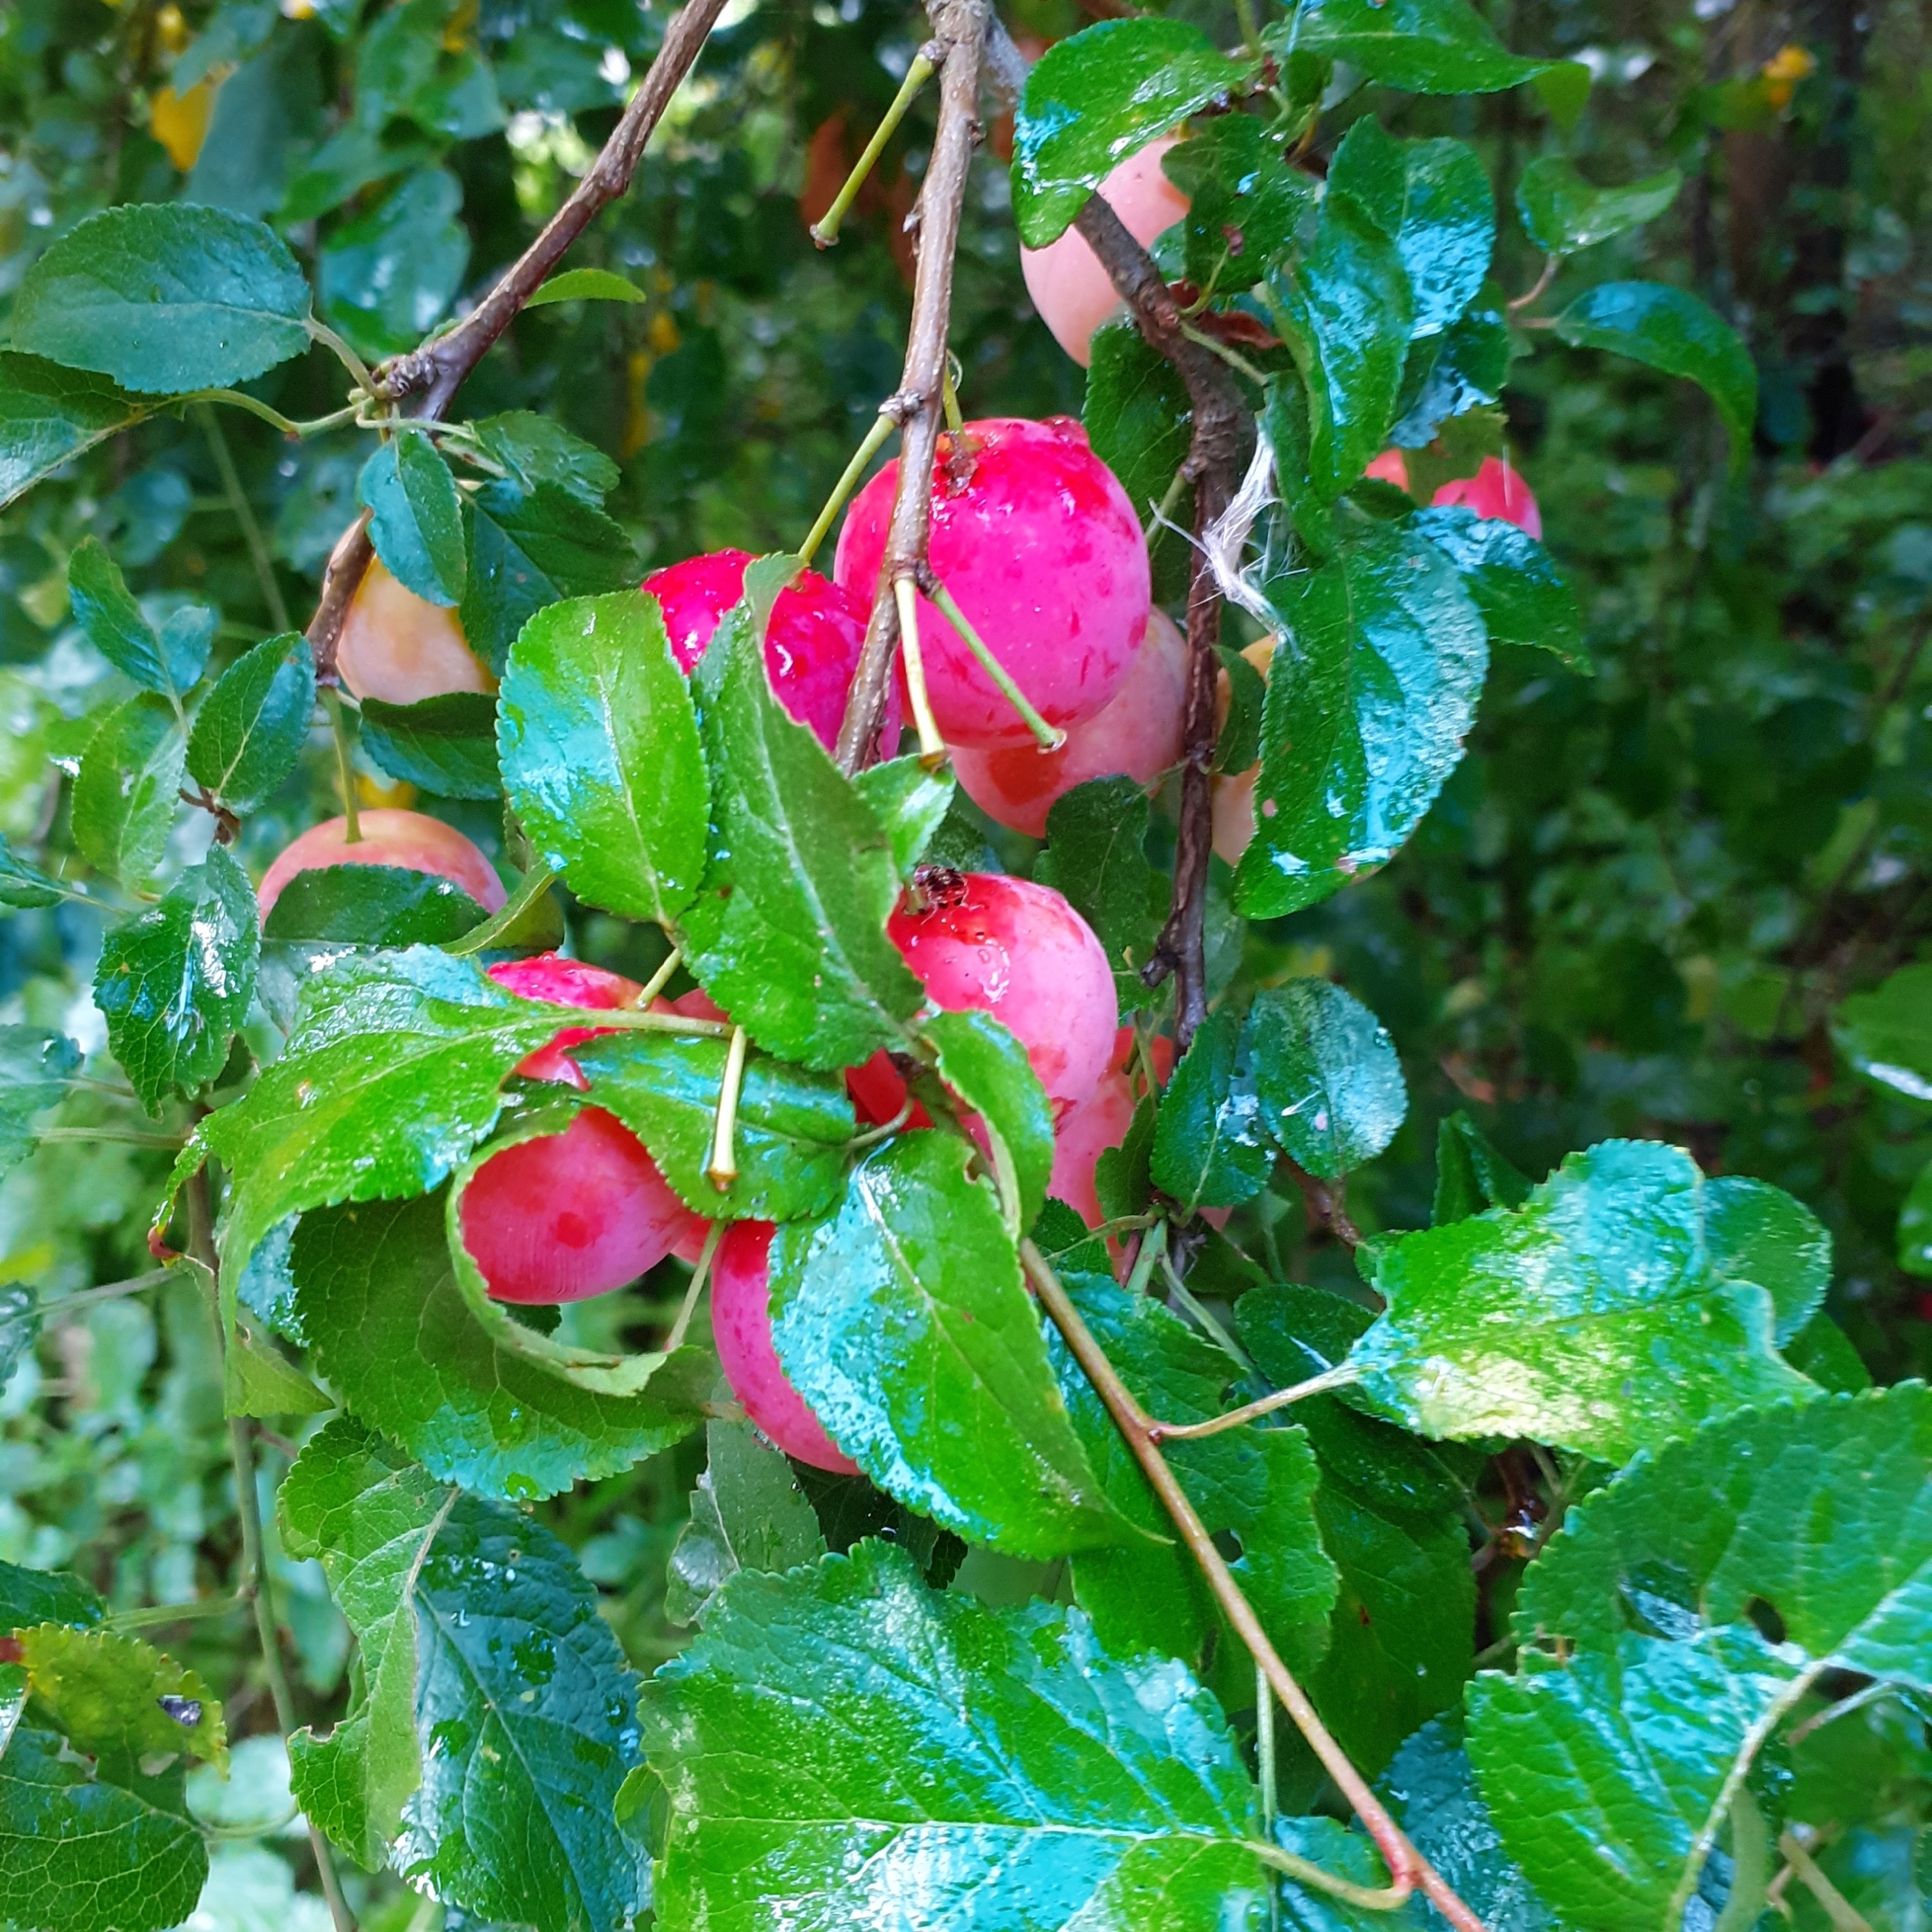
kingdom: Plantae
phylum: Tracheophyta
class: Magnoliopsida
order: Rosales
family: Rosaceae
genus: Prunus
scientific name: Prunus cerasifera
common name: Cherry plum
